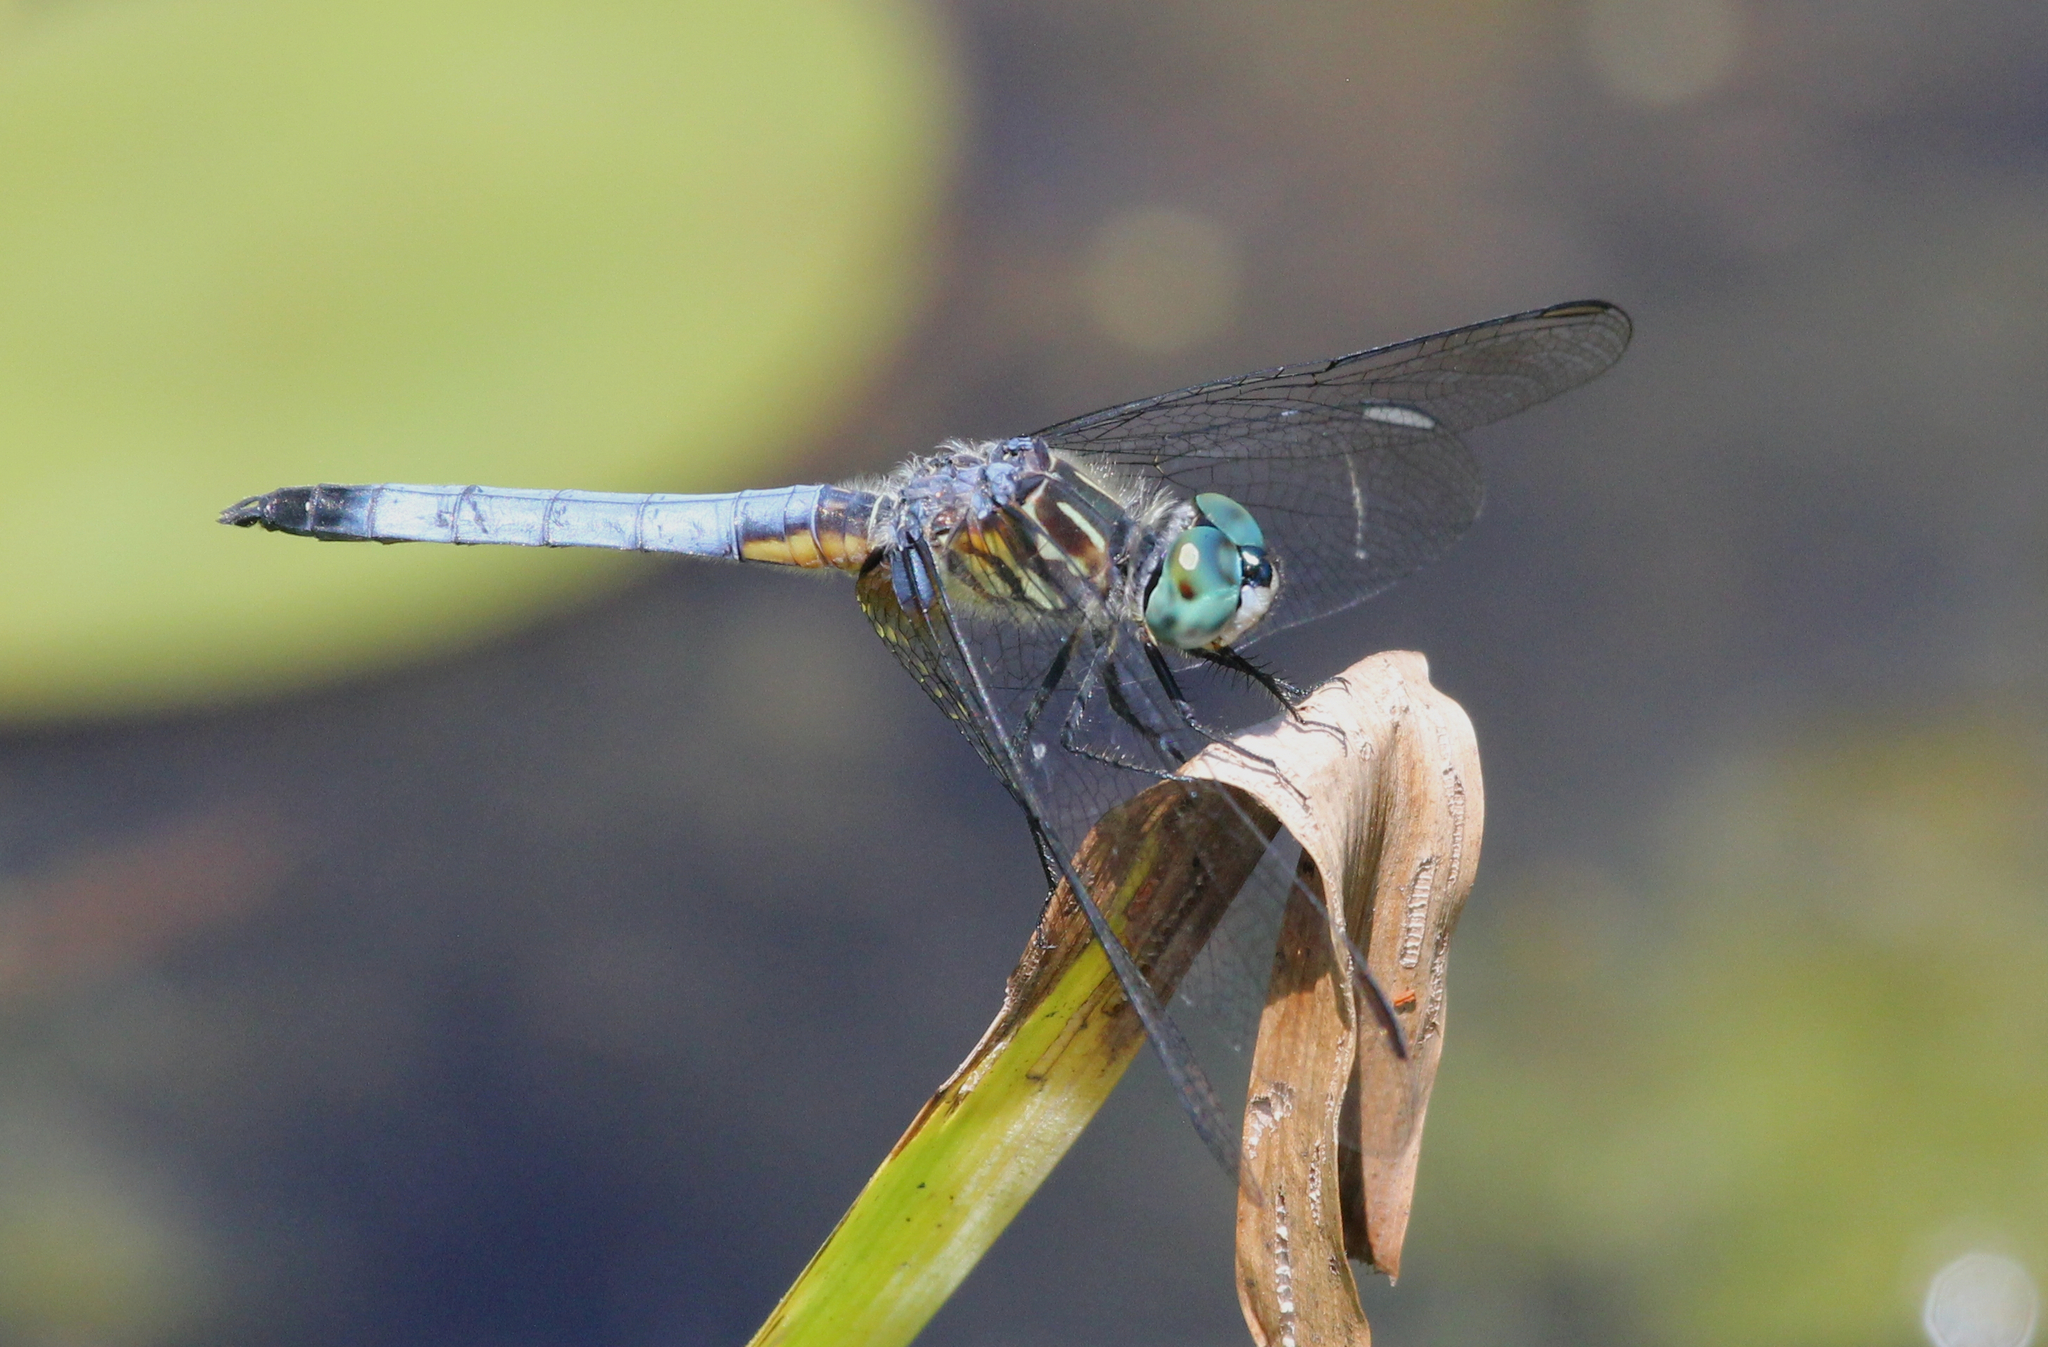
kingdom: Animalia
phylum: Arthropoda
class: Insecta
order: Odonata
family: Libellulidae
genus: Pachydiplax
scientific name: Pachydiplax longipennis
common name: Blue dasher
